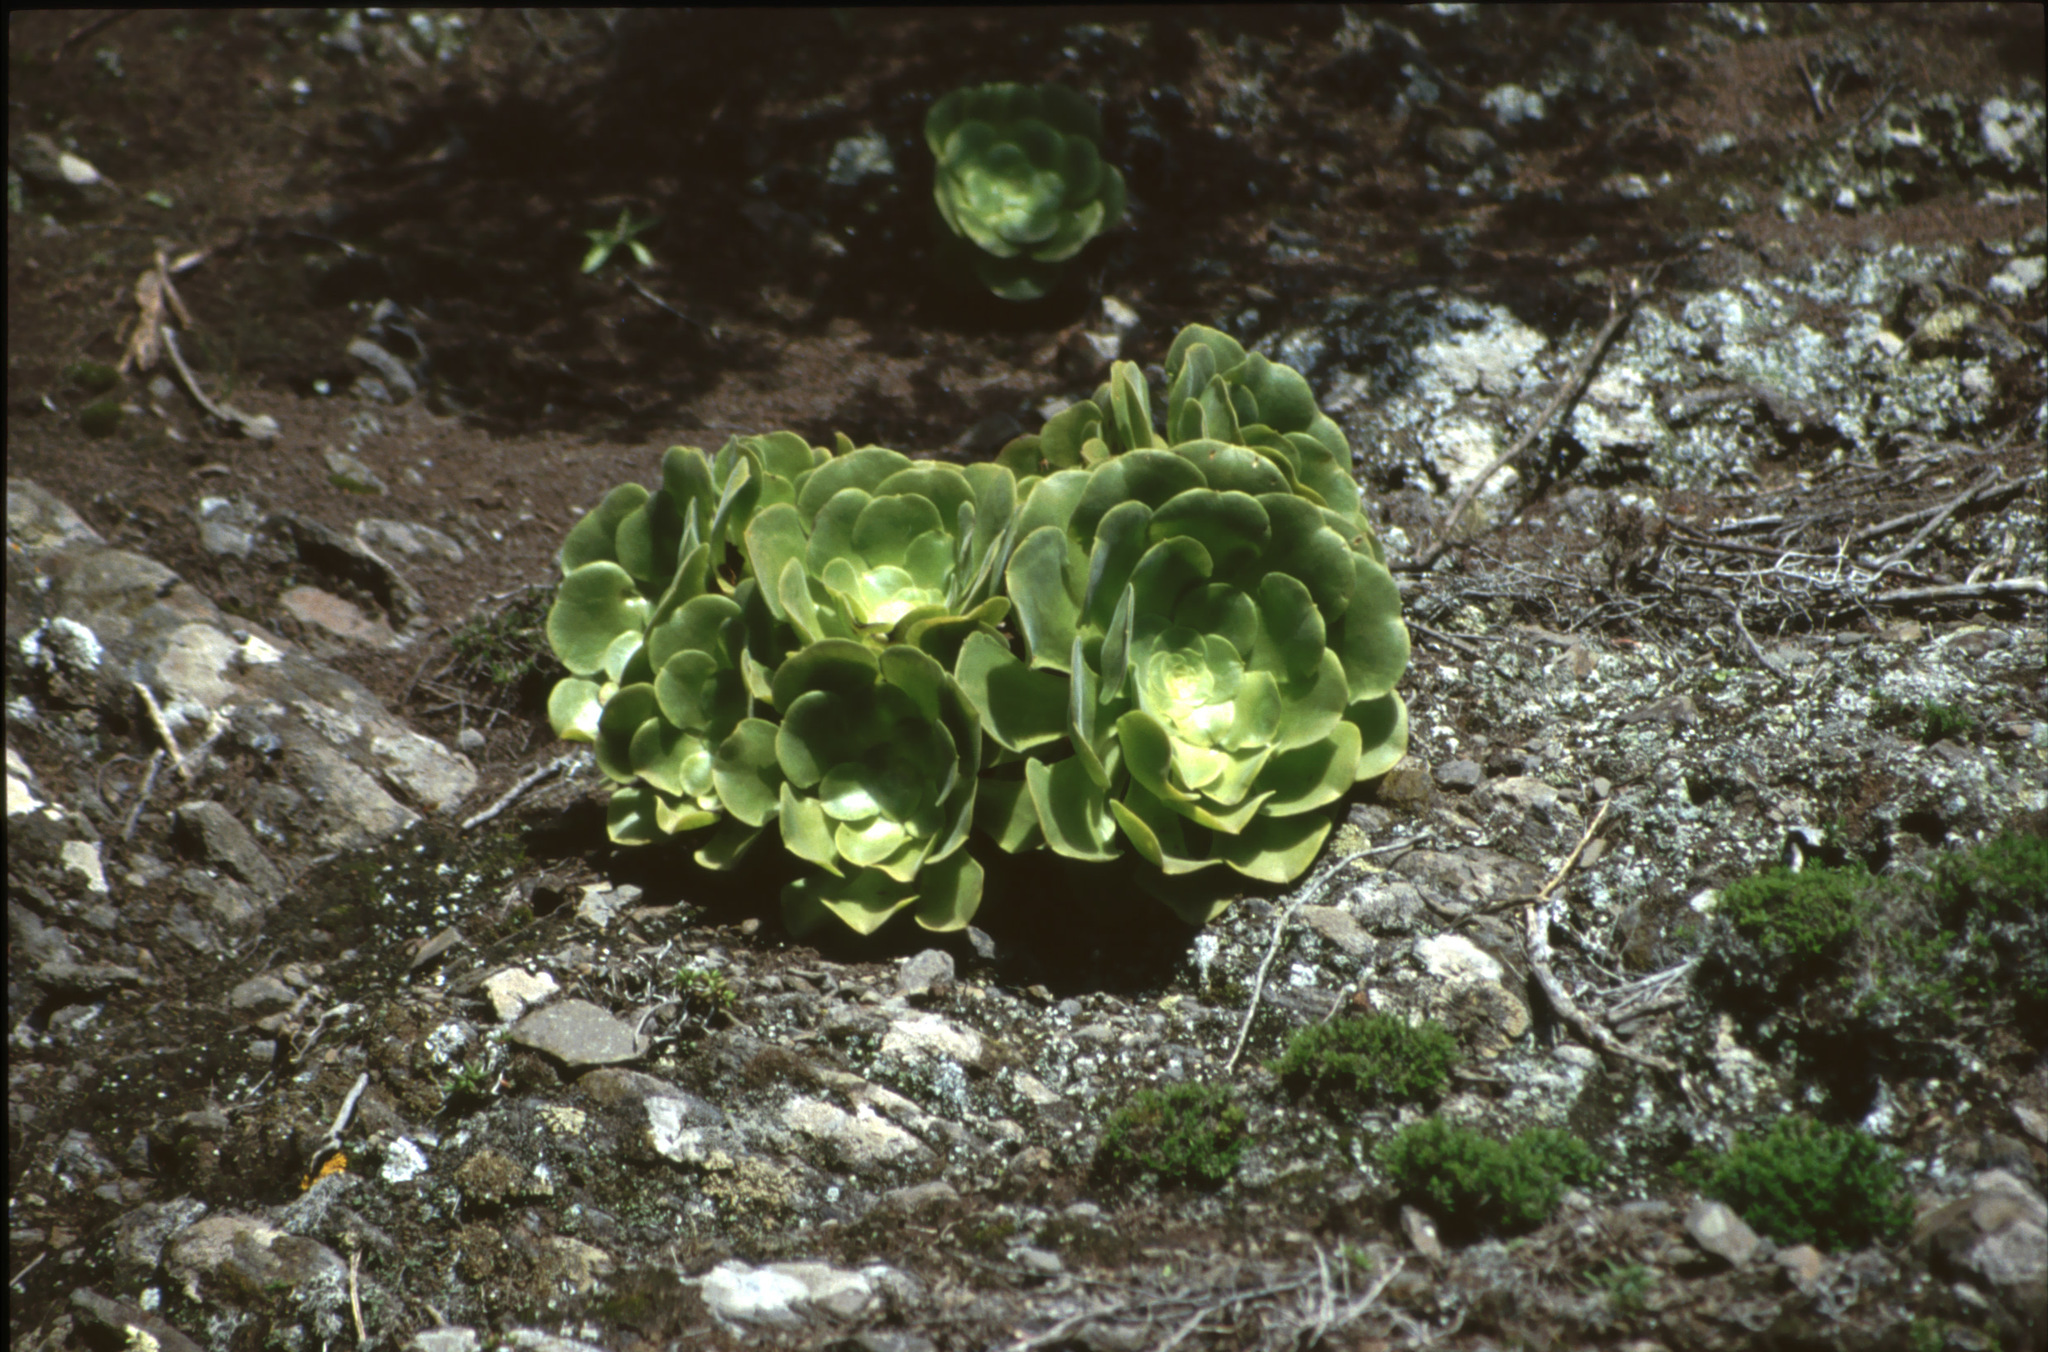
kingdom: Plantae
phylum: Tracheophyta
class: Magnoliopsida
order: Saxifragales
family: Crassulaceae
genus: Aeonium
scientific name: Aeonium canariense
